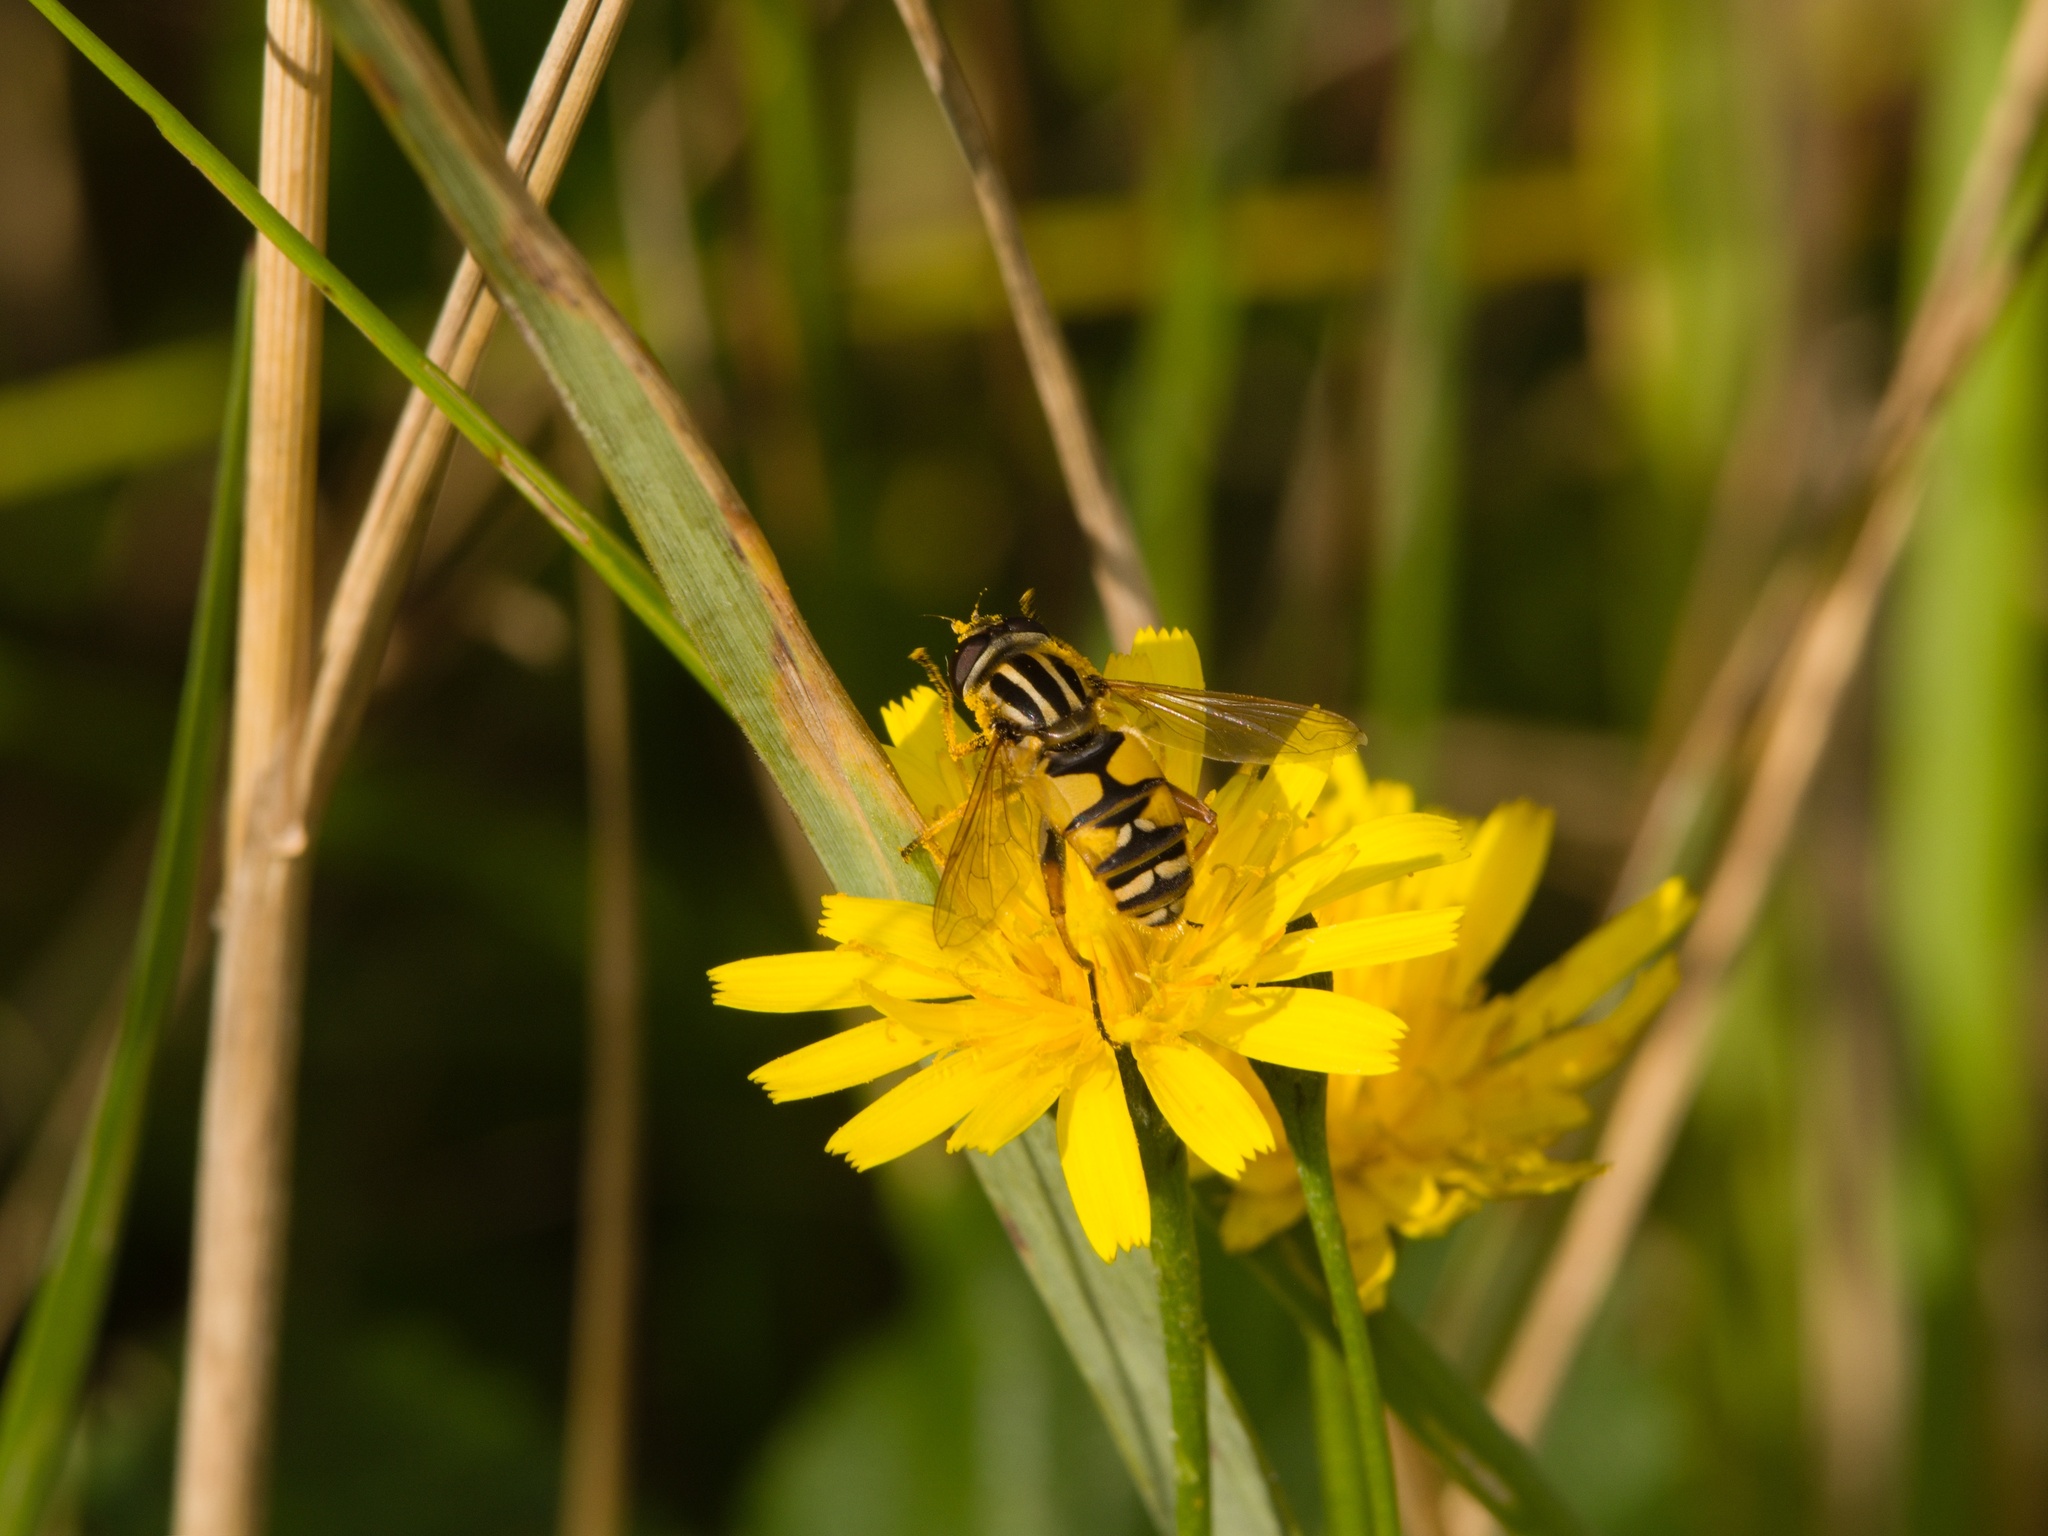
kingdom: Animalia
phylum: Arthropoda
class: Insecta
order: Diptera
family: Syrphidae
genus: Helophilus
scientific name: Helophilus pendulus
